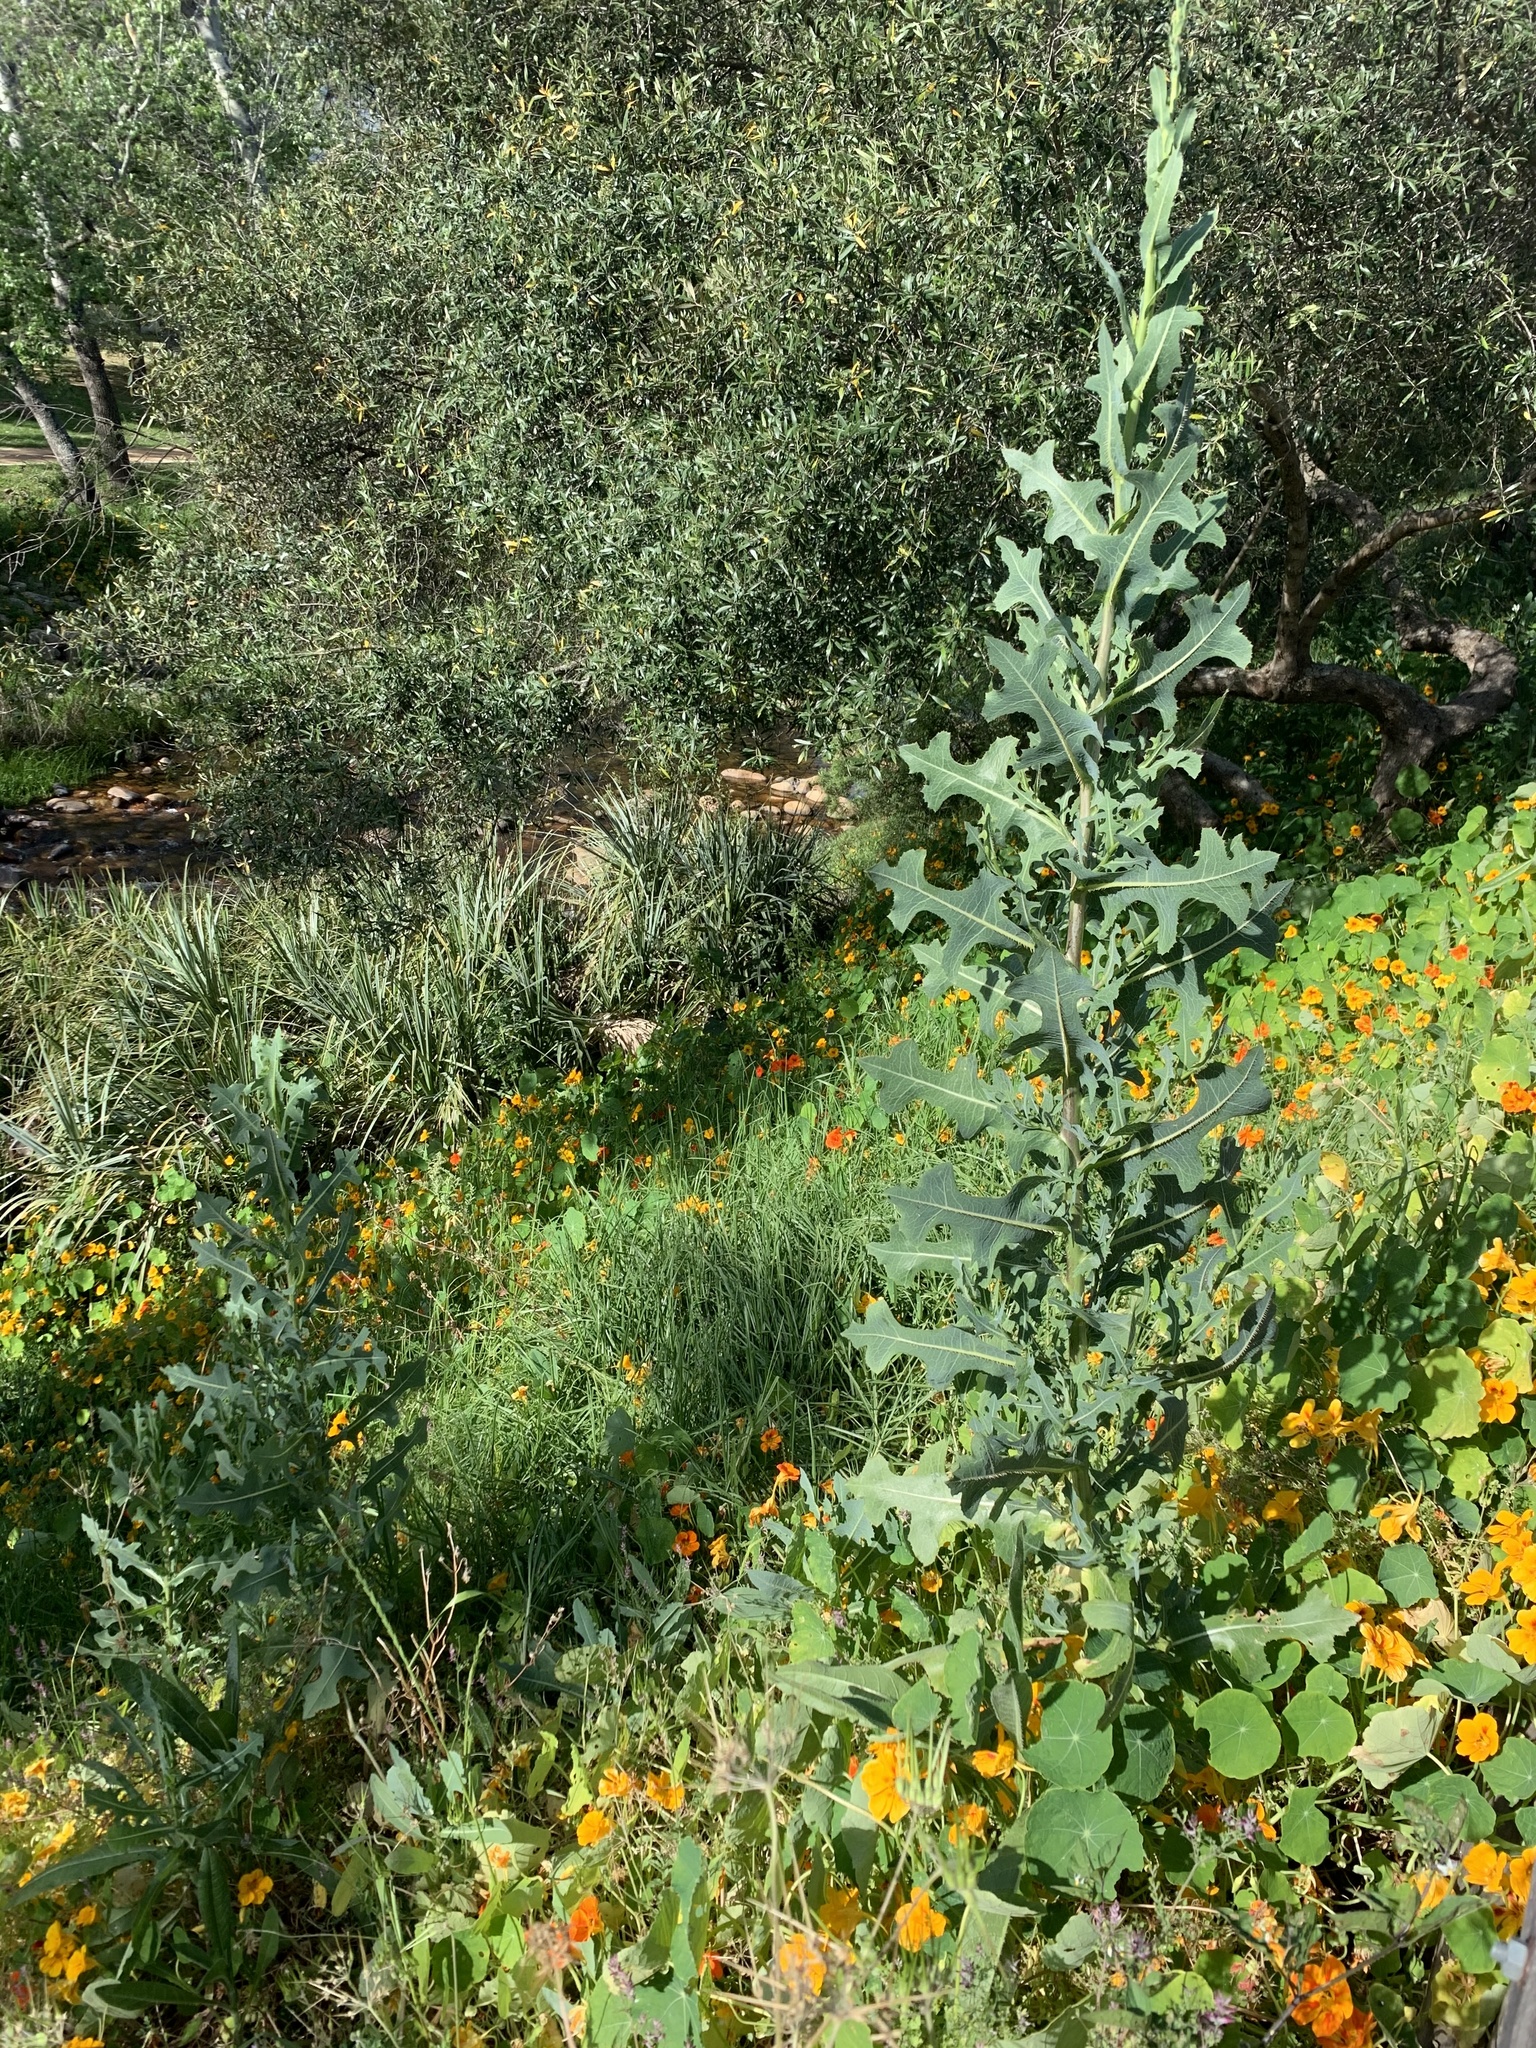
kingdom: Plantae
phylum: Tracheophyta
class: Magnoliopsida
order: Asterales
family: Asteraceae
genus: Lactuca
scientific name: Lactuca serriola
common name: Prickly lettuce
